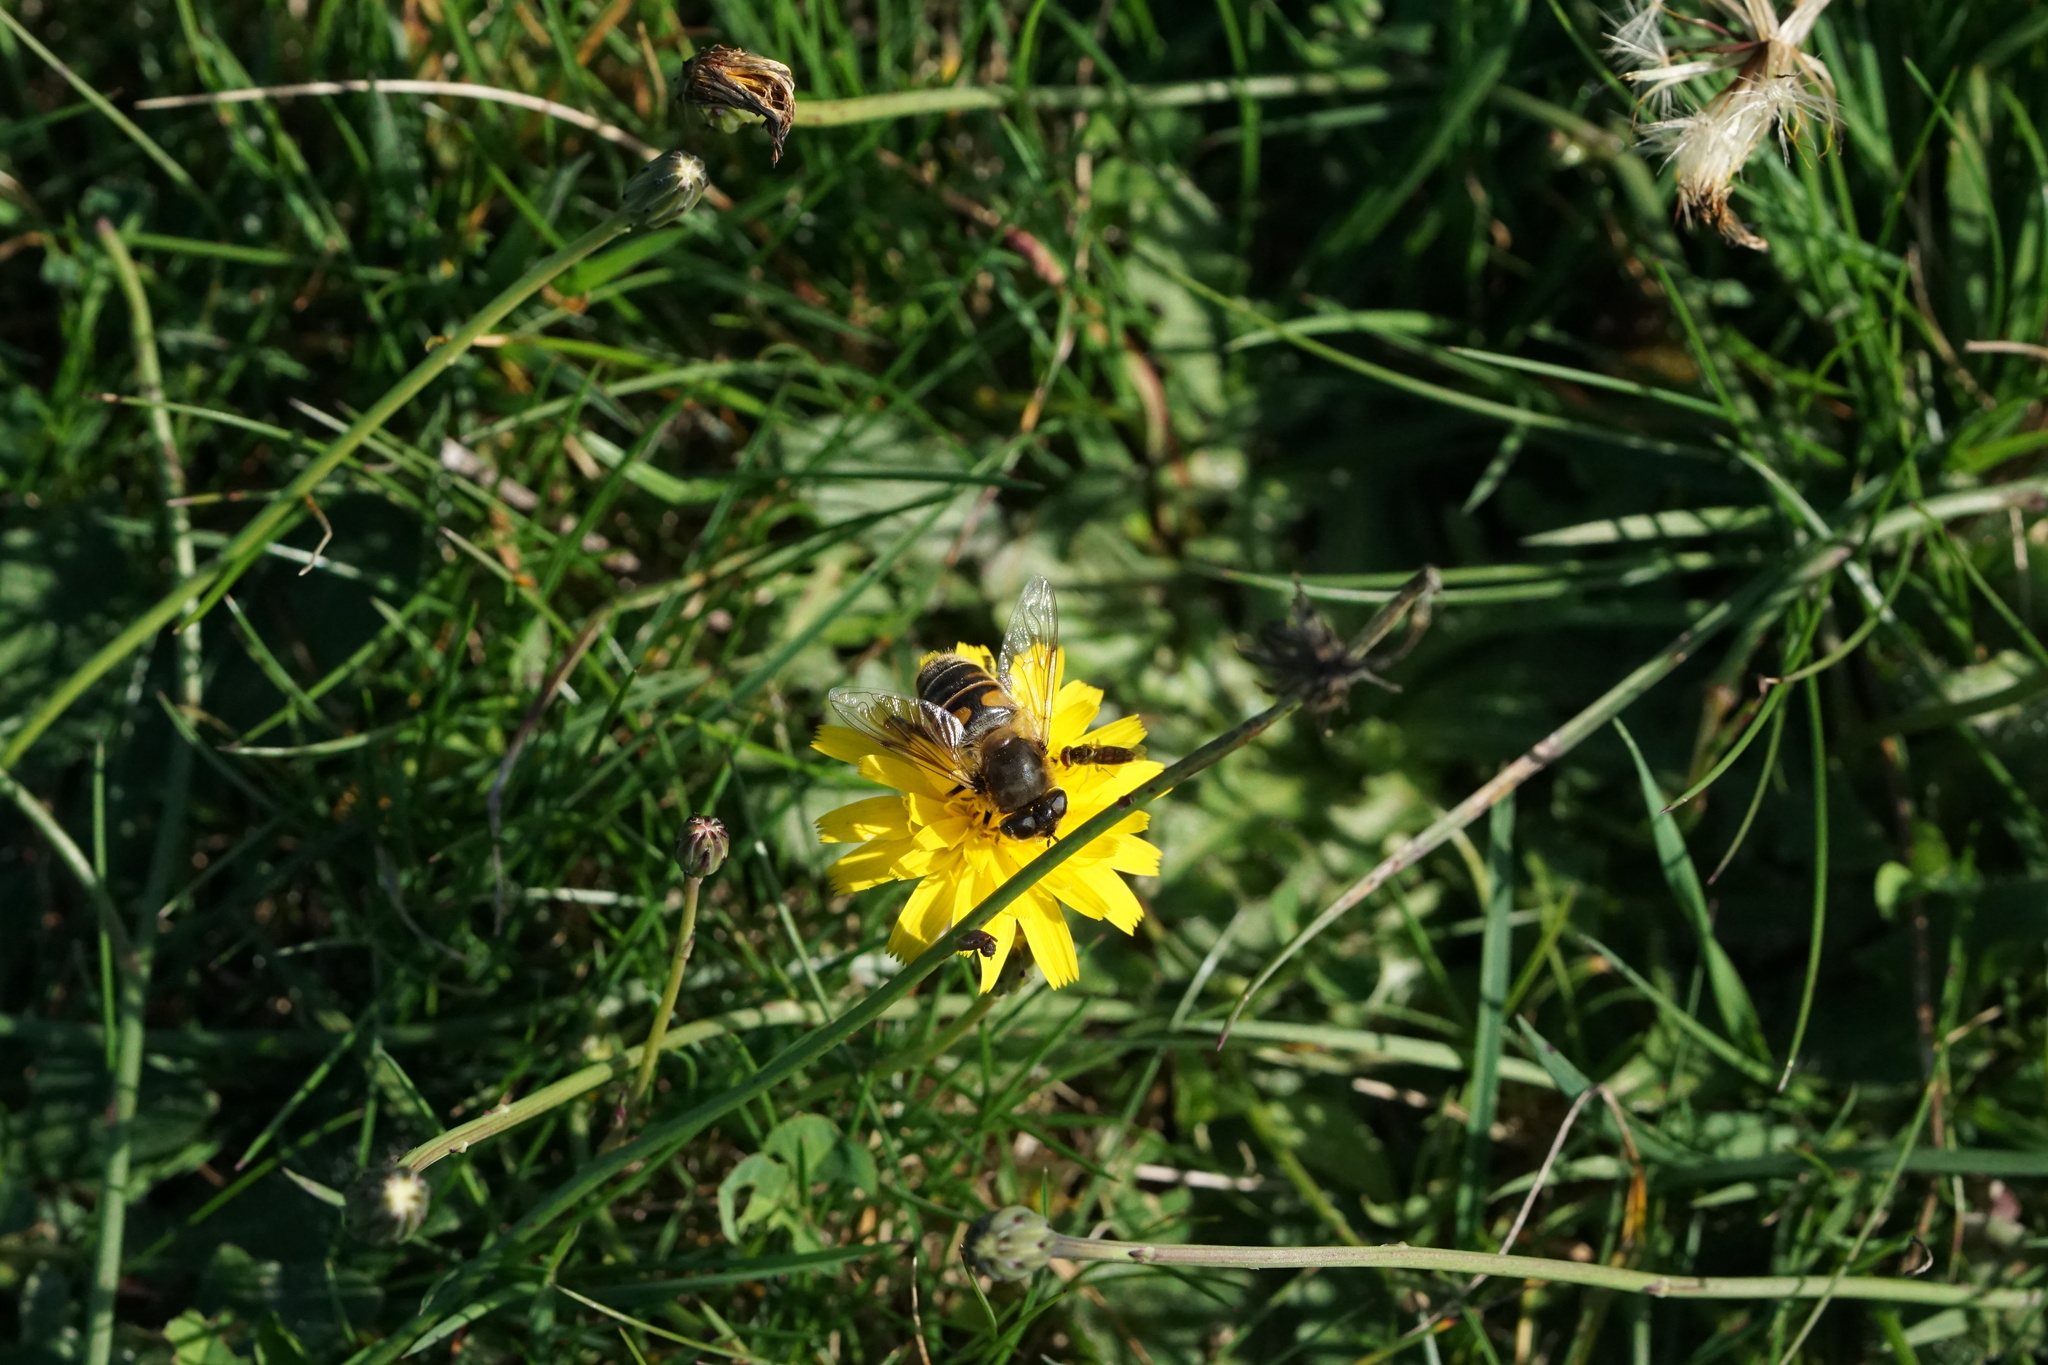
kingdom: Animalia
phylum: Arthropoda
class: Insecta
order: Diptera
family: Syrphidae
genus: Eristalis
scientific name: Eristalis tenax
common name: Drone fly
